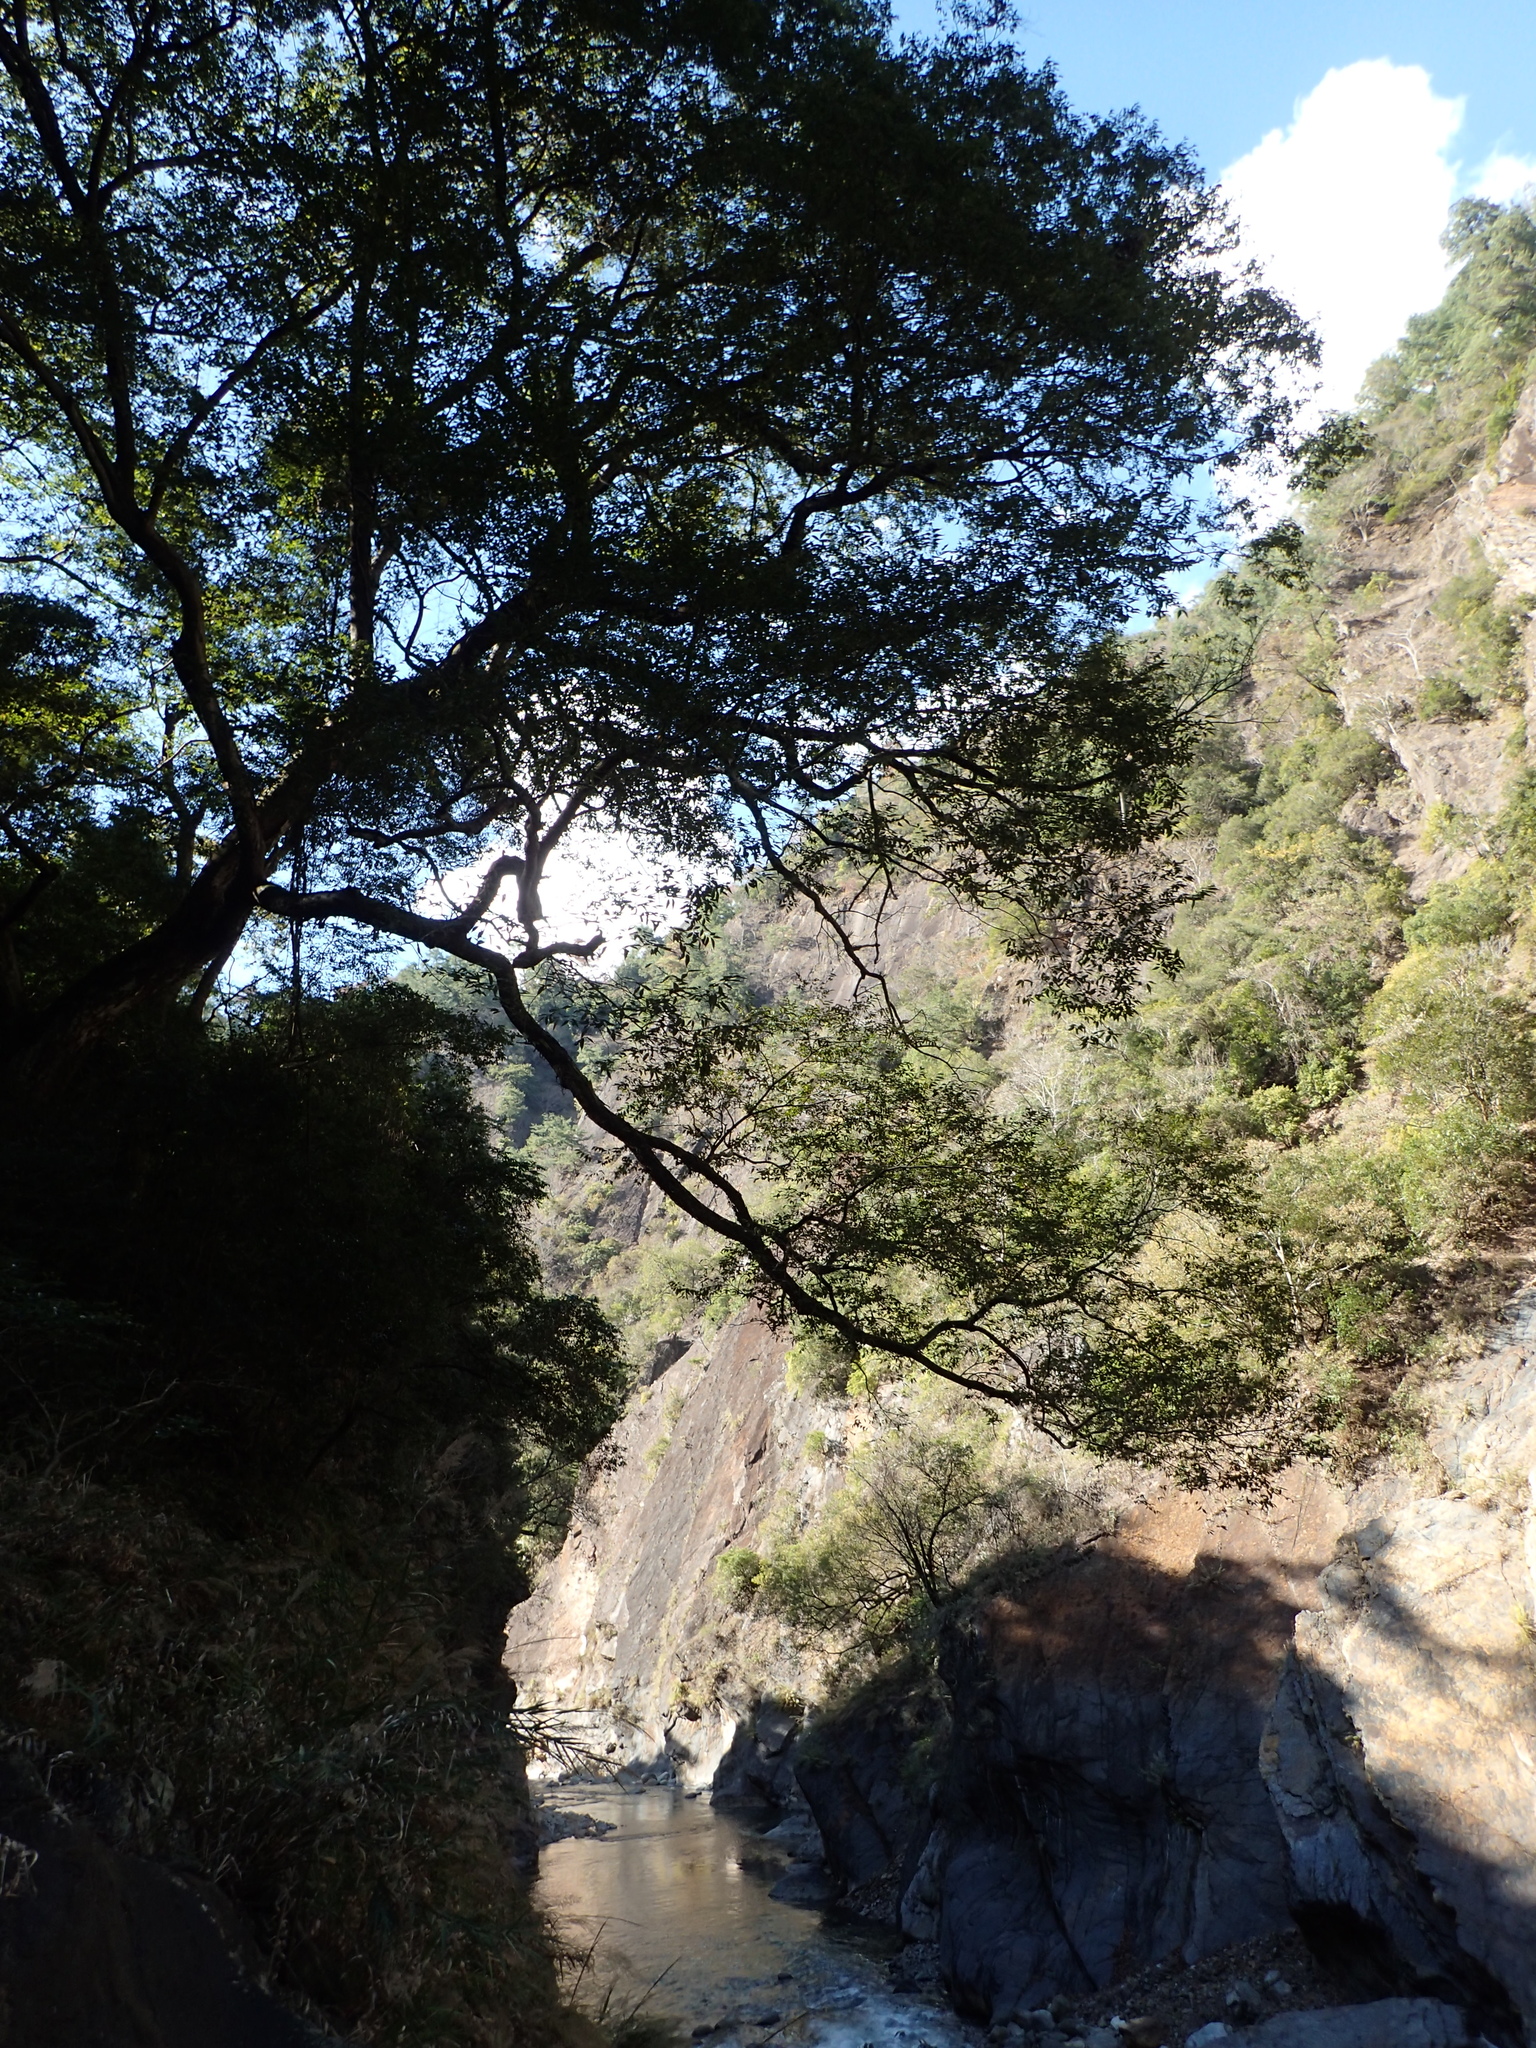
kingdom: Plantae
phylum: Tracheophyta
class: Magnoliopsida
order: Rosales
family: Ulmaceae
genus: Zelkova
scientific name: Zelkova serrata
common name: Japanese zelkova
